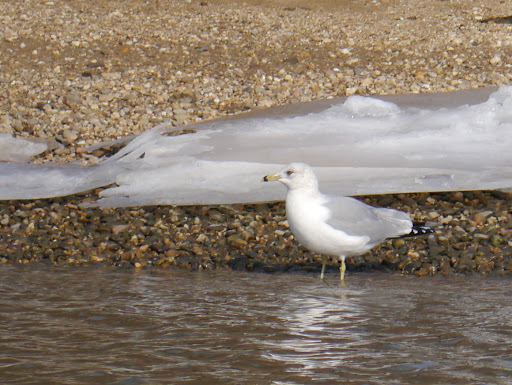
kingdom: Animalia
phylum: Chordata
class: Aves
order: Charadriiformes
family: Laridae
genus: Larus
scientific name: Larus delawarensis
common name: Ring-billed gull
